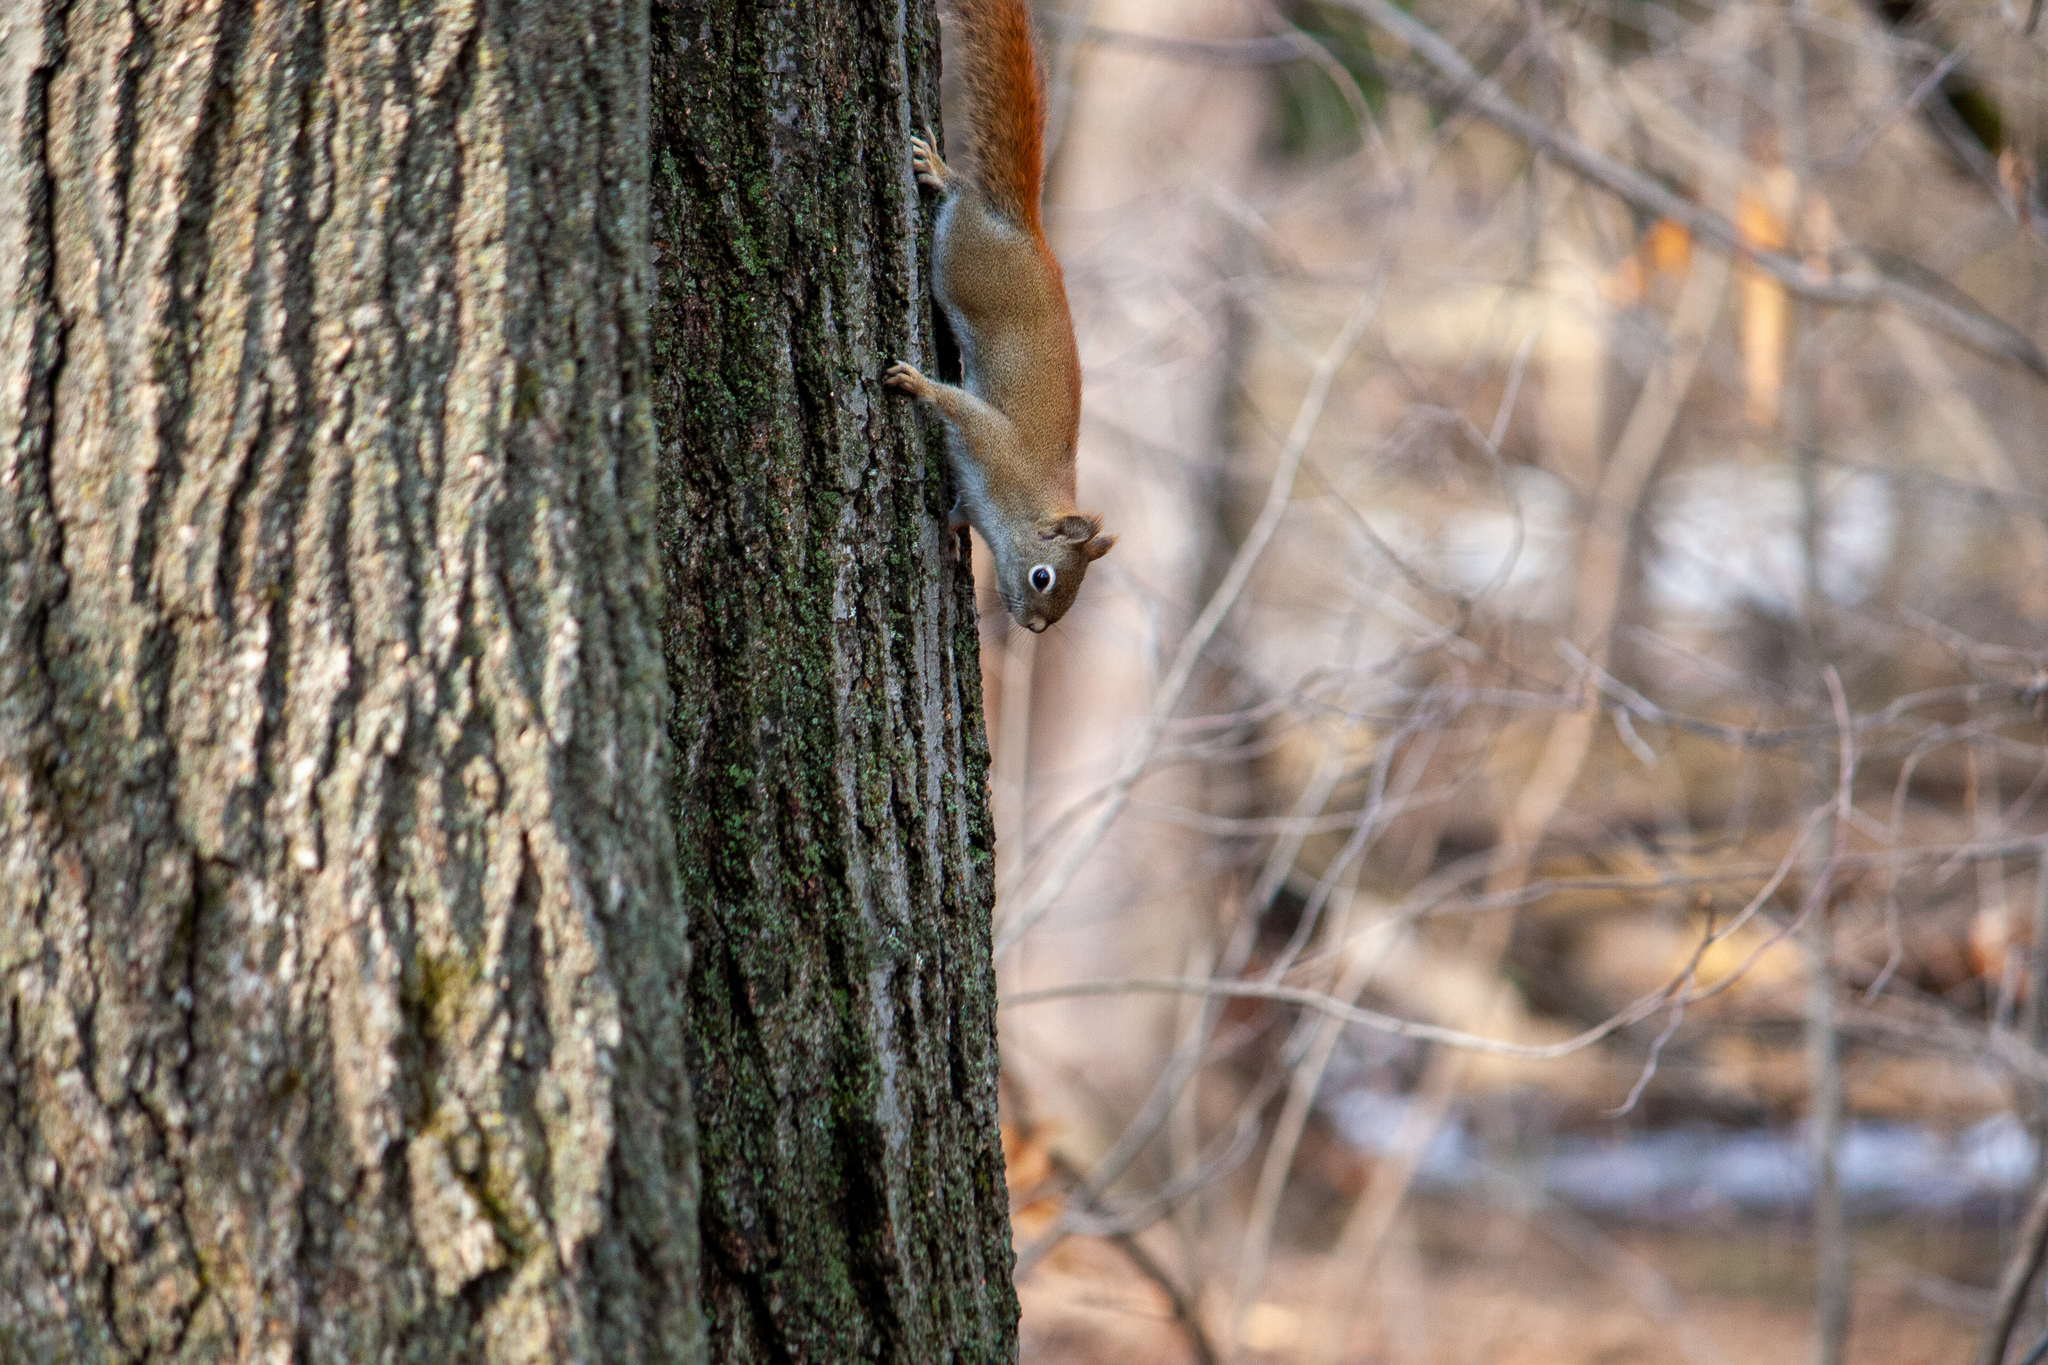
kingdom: Animalia
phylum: Chordata
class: Mammalia
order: Rodentia
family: Sciuridae
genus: Tamiasciurus
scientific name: Tamiasciurus hudsonicus
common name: Red squirrel
